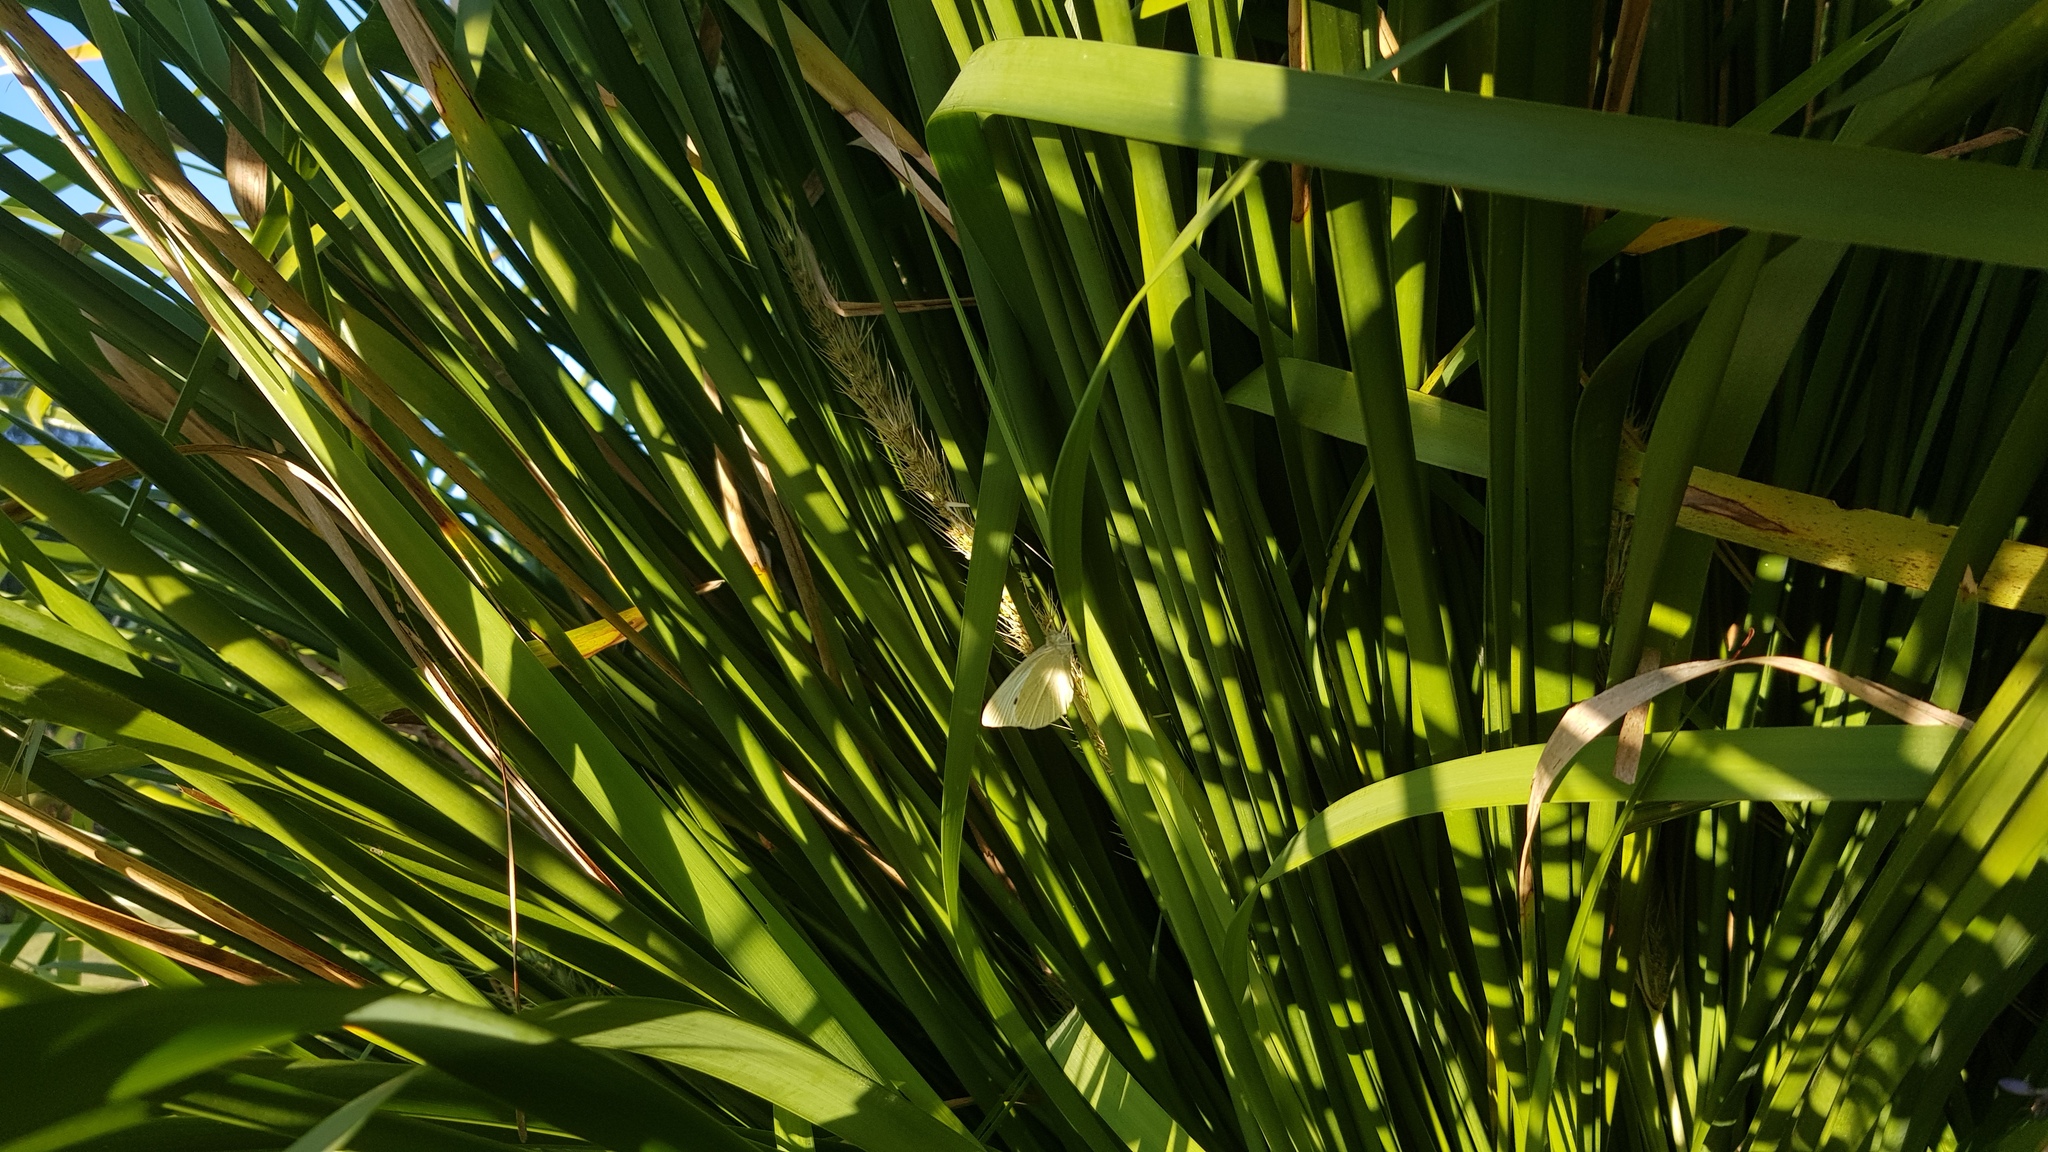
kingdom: Animalia
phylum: Arthropoda
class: Insecta
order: Lepidoptera
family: Pieridae
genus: Pieris
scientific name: Pieris rapae
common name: Small white
